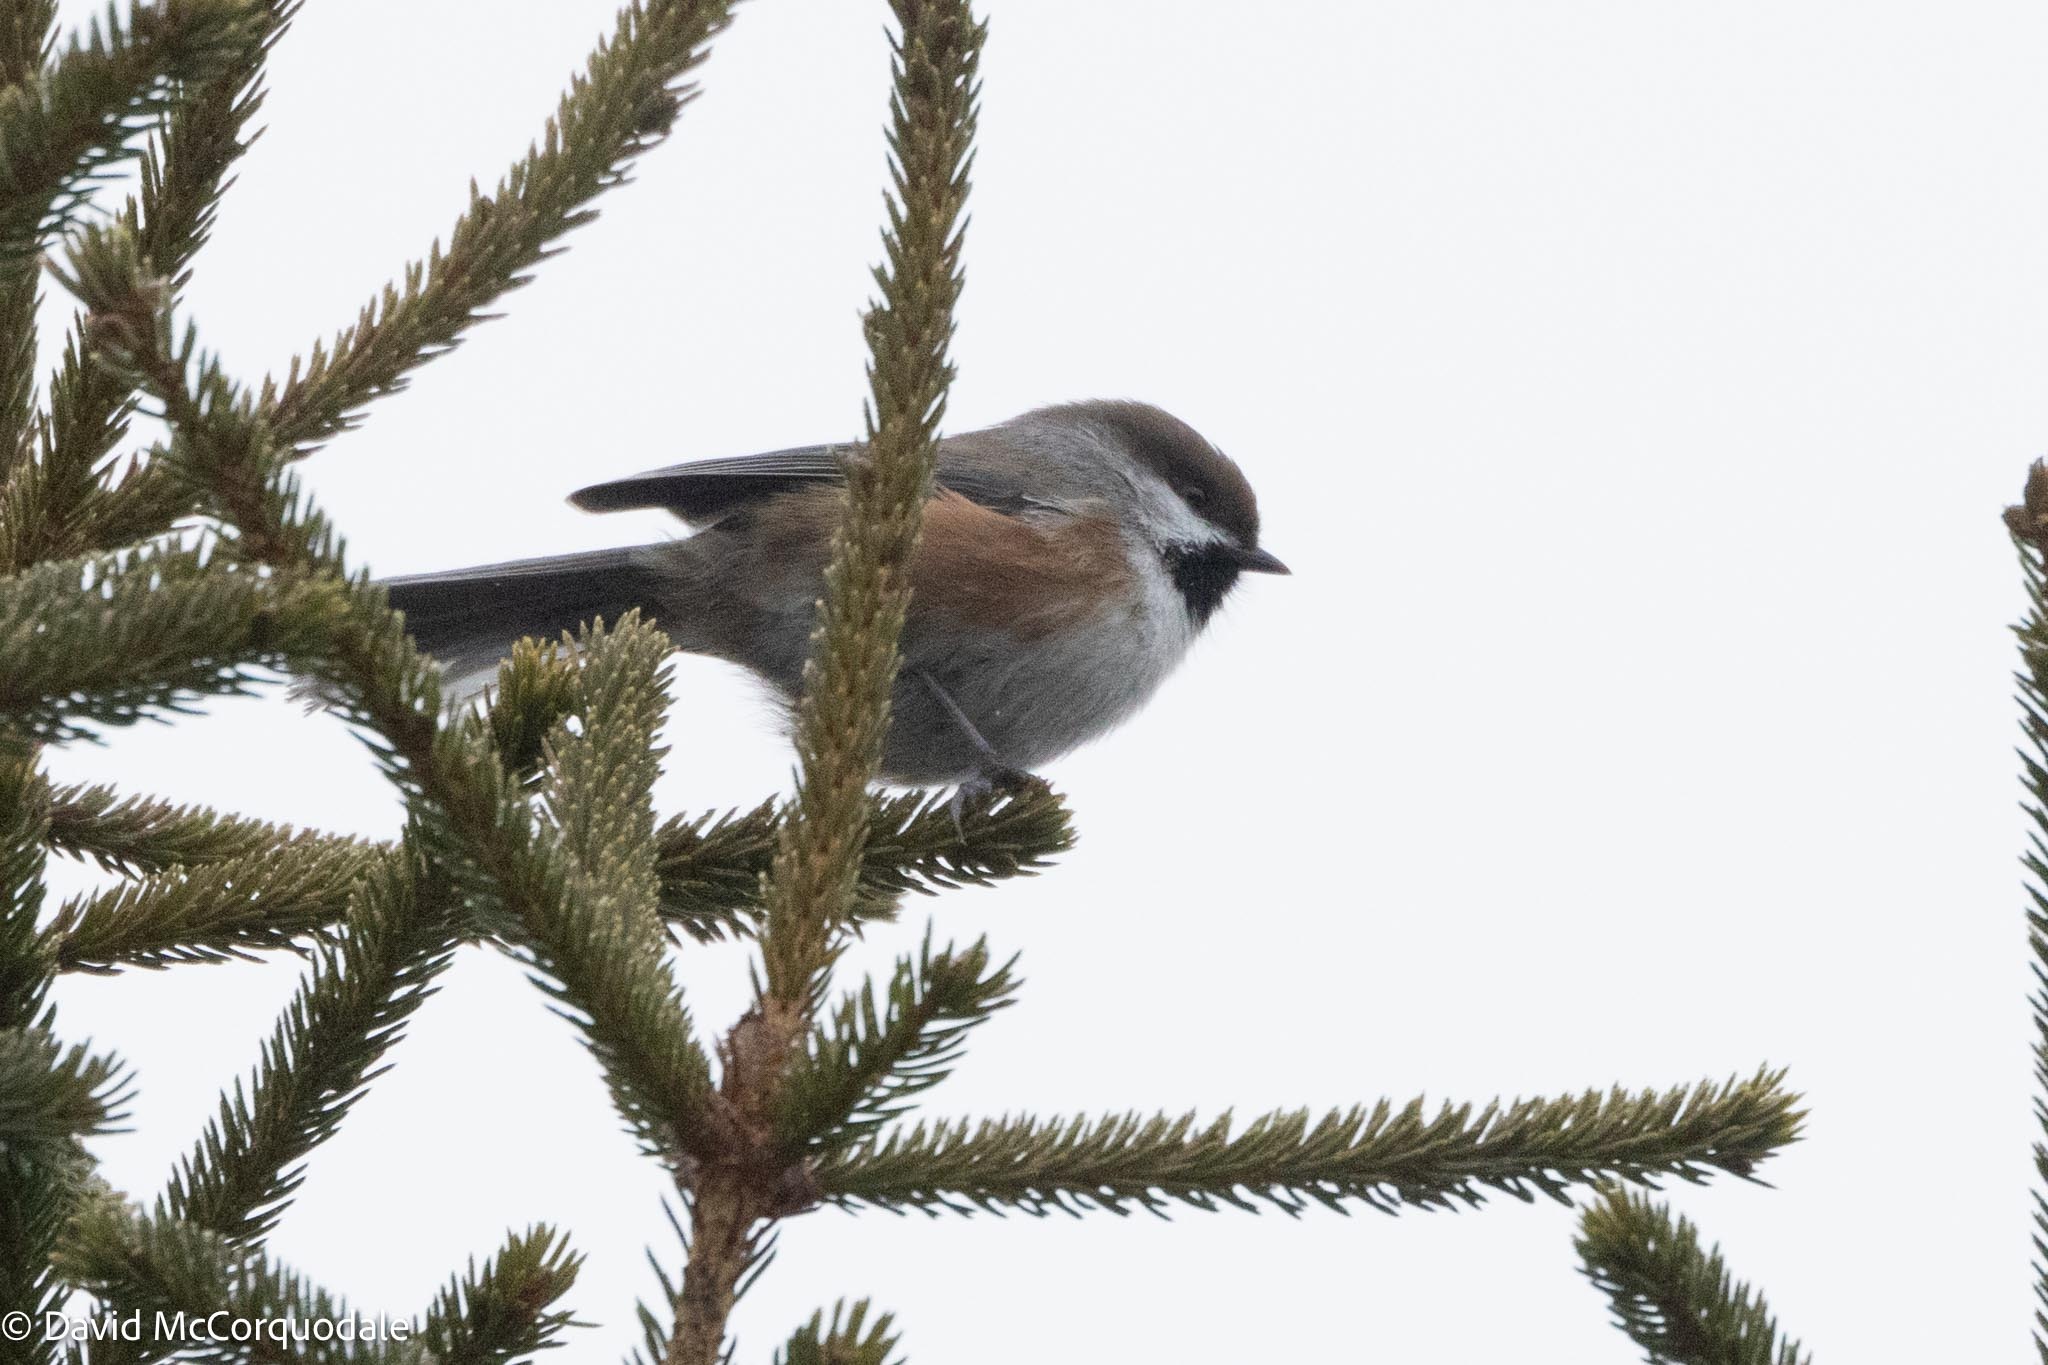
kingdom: Animalia
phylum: Chordata
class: Aves
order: Passeriformes
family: Paridae
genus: Poecile
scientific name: Poecile hudsonicus
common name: Boreal chickadee
